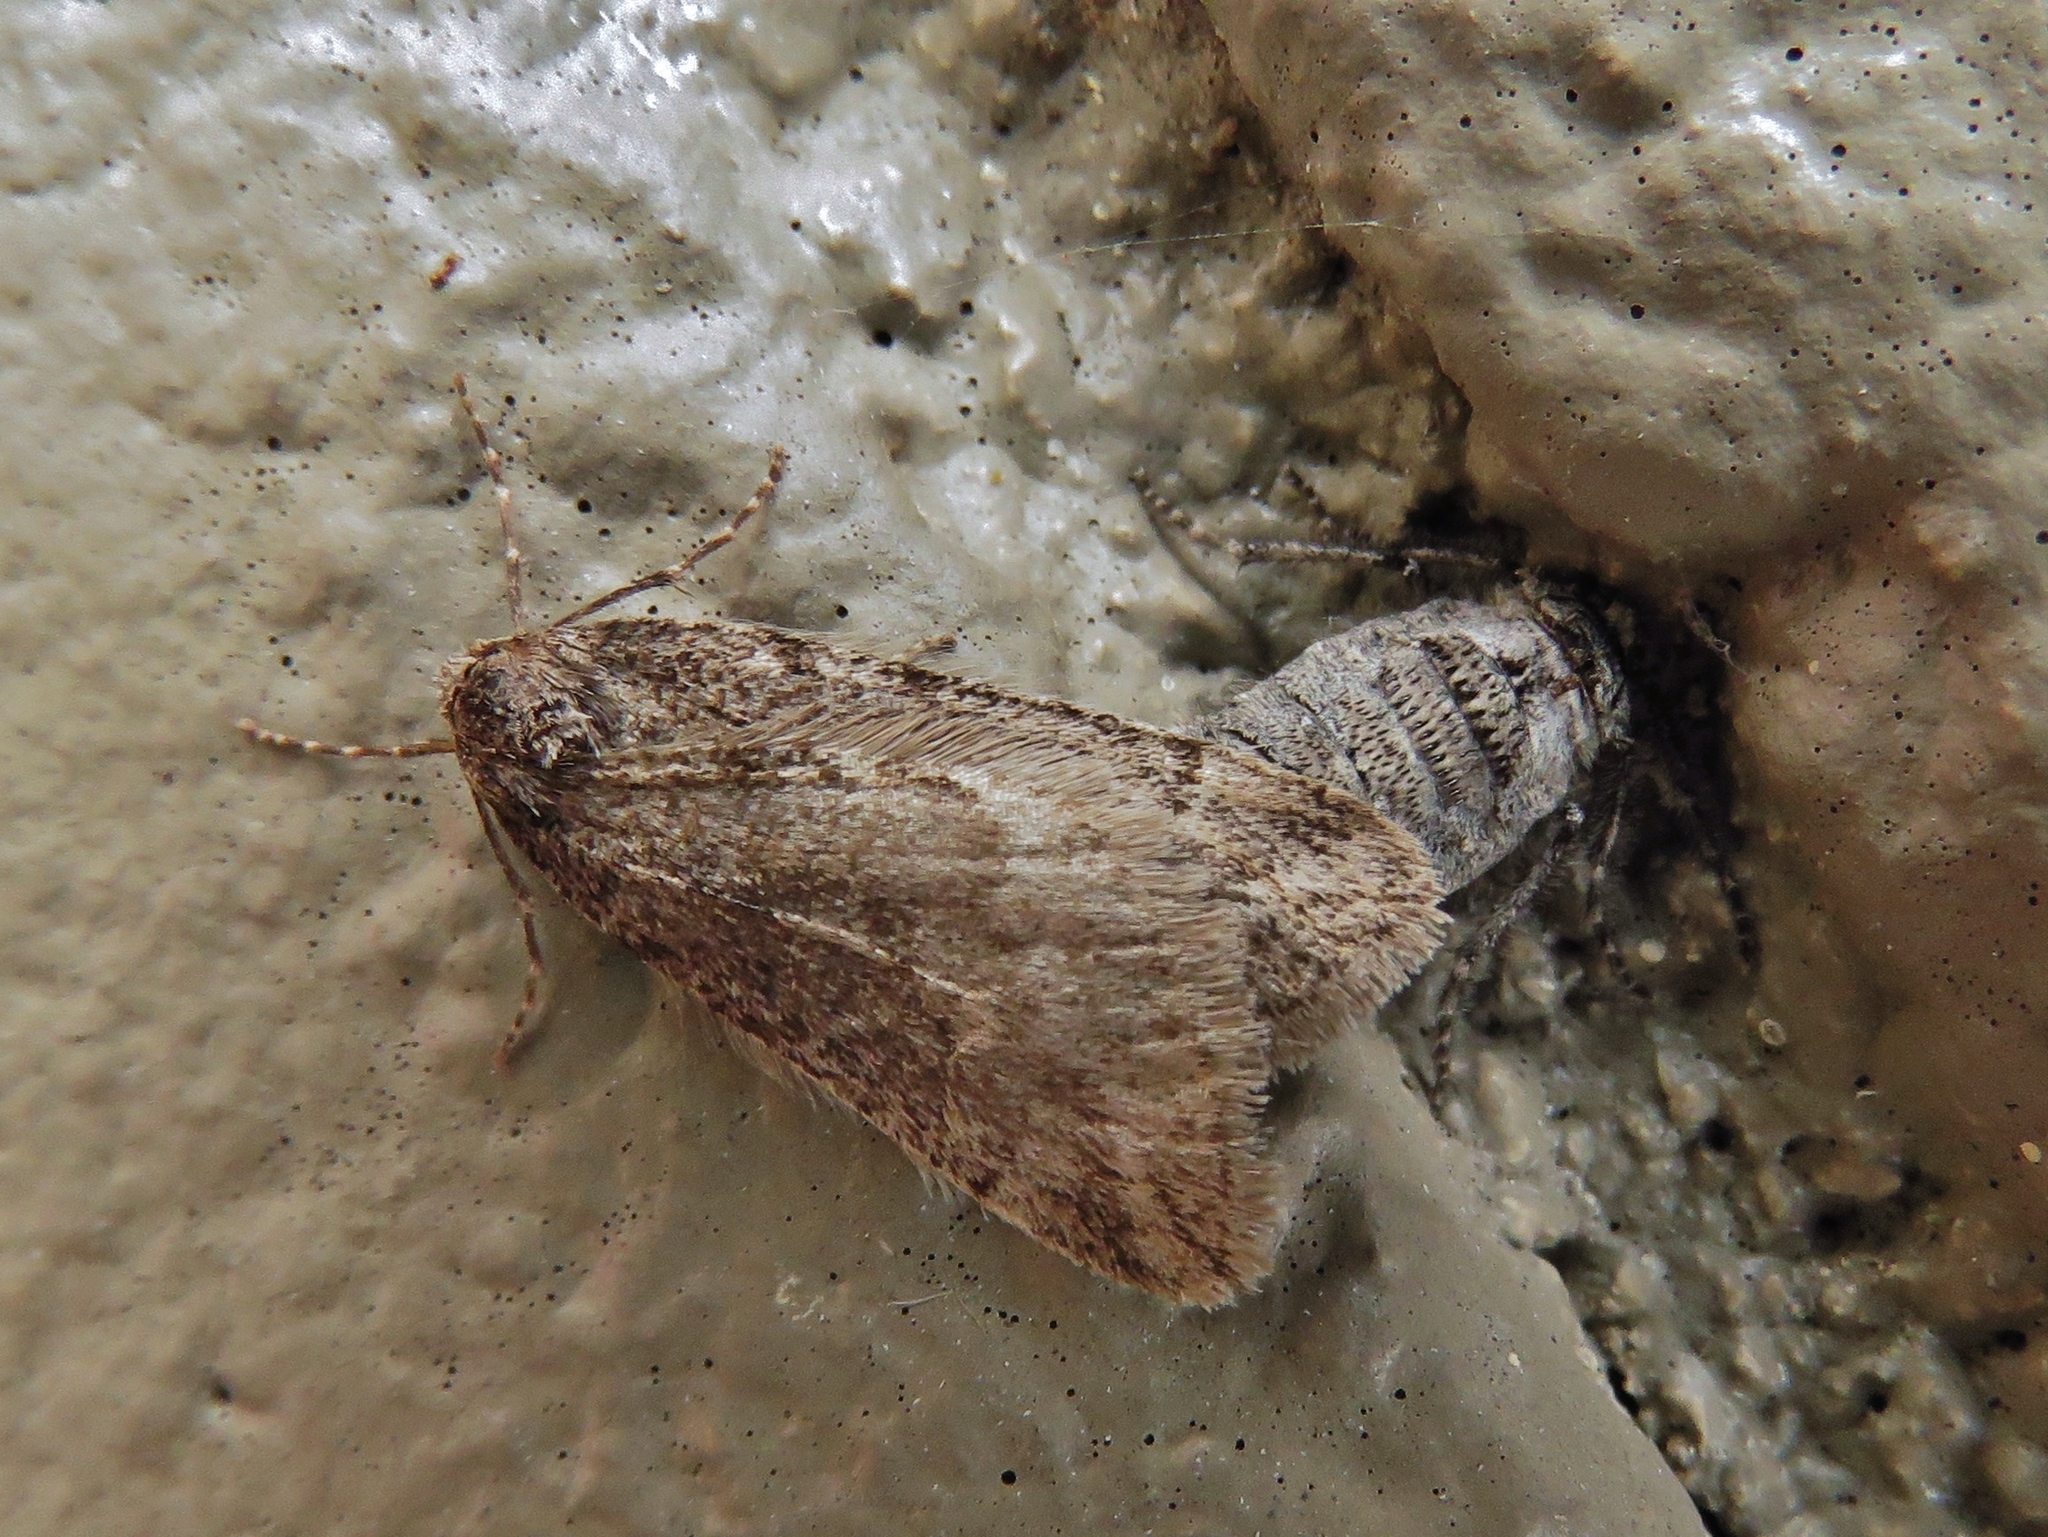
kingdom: Animalia
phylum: Arthropoda
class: Insecta
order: Lepidoptera
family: Geometridae
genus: Paleacrita
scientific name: Paleacrita vernata
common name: Spring cankerworm
